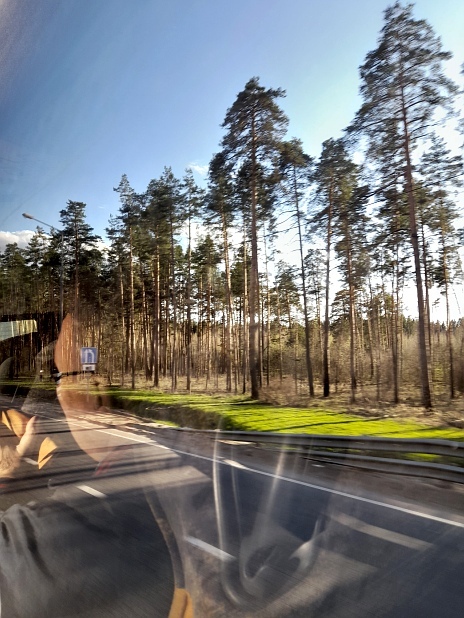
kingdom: Plantae
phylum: Tracheophyta
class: Pinopsida
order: Pinales
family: Pinaceae
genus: Pinus
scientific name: Pinus sylvestris
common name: Scots pine
